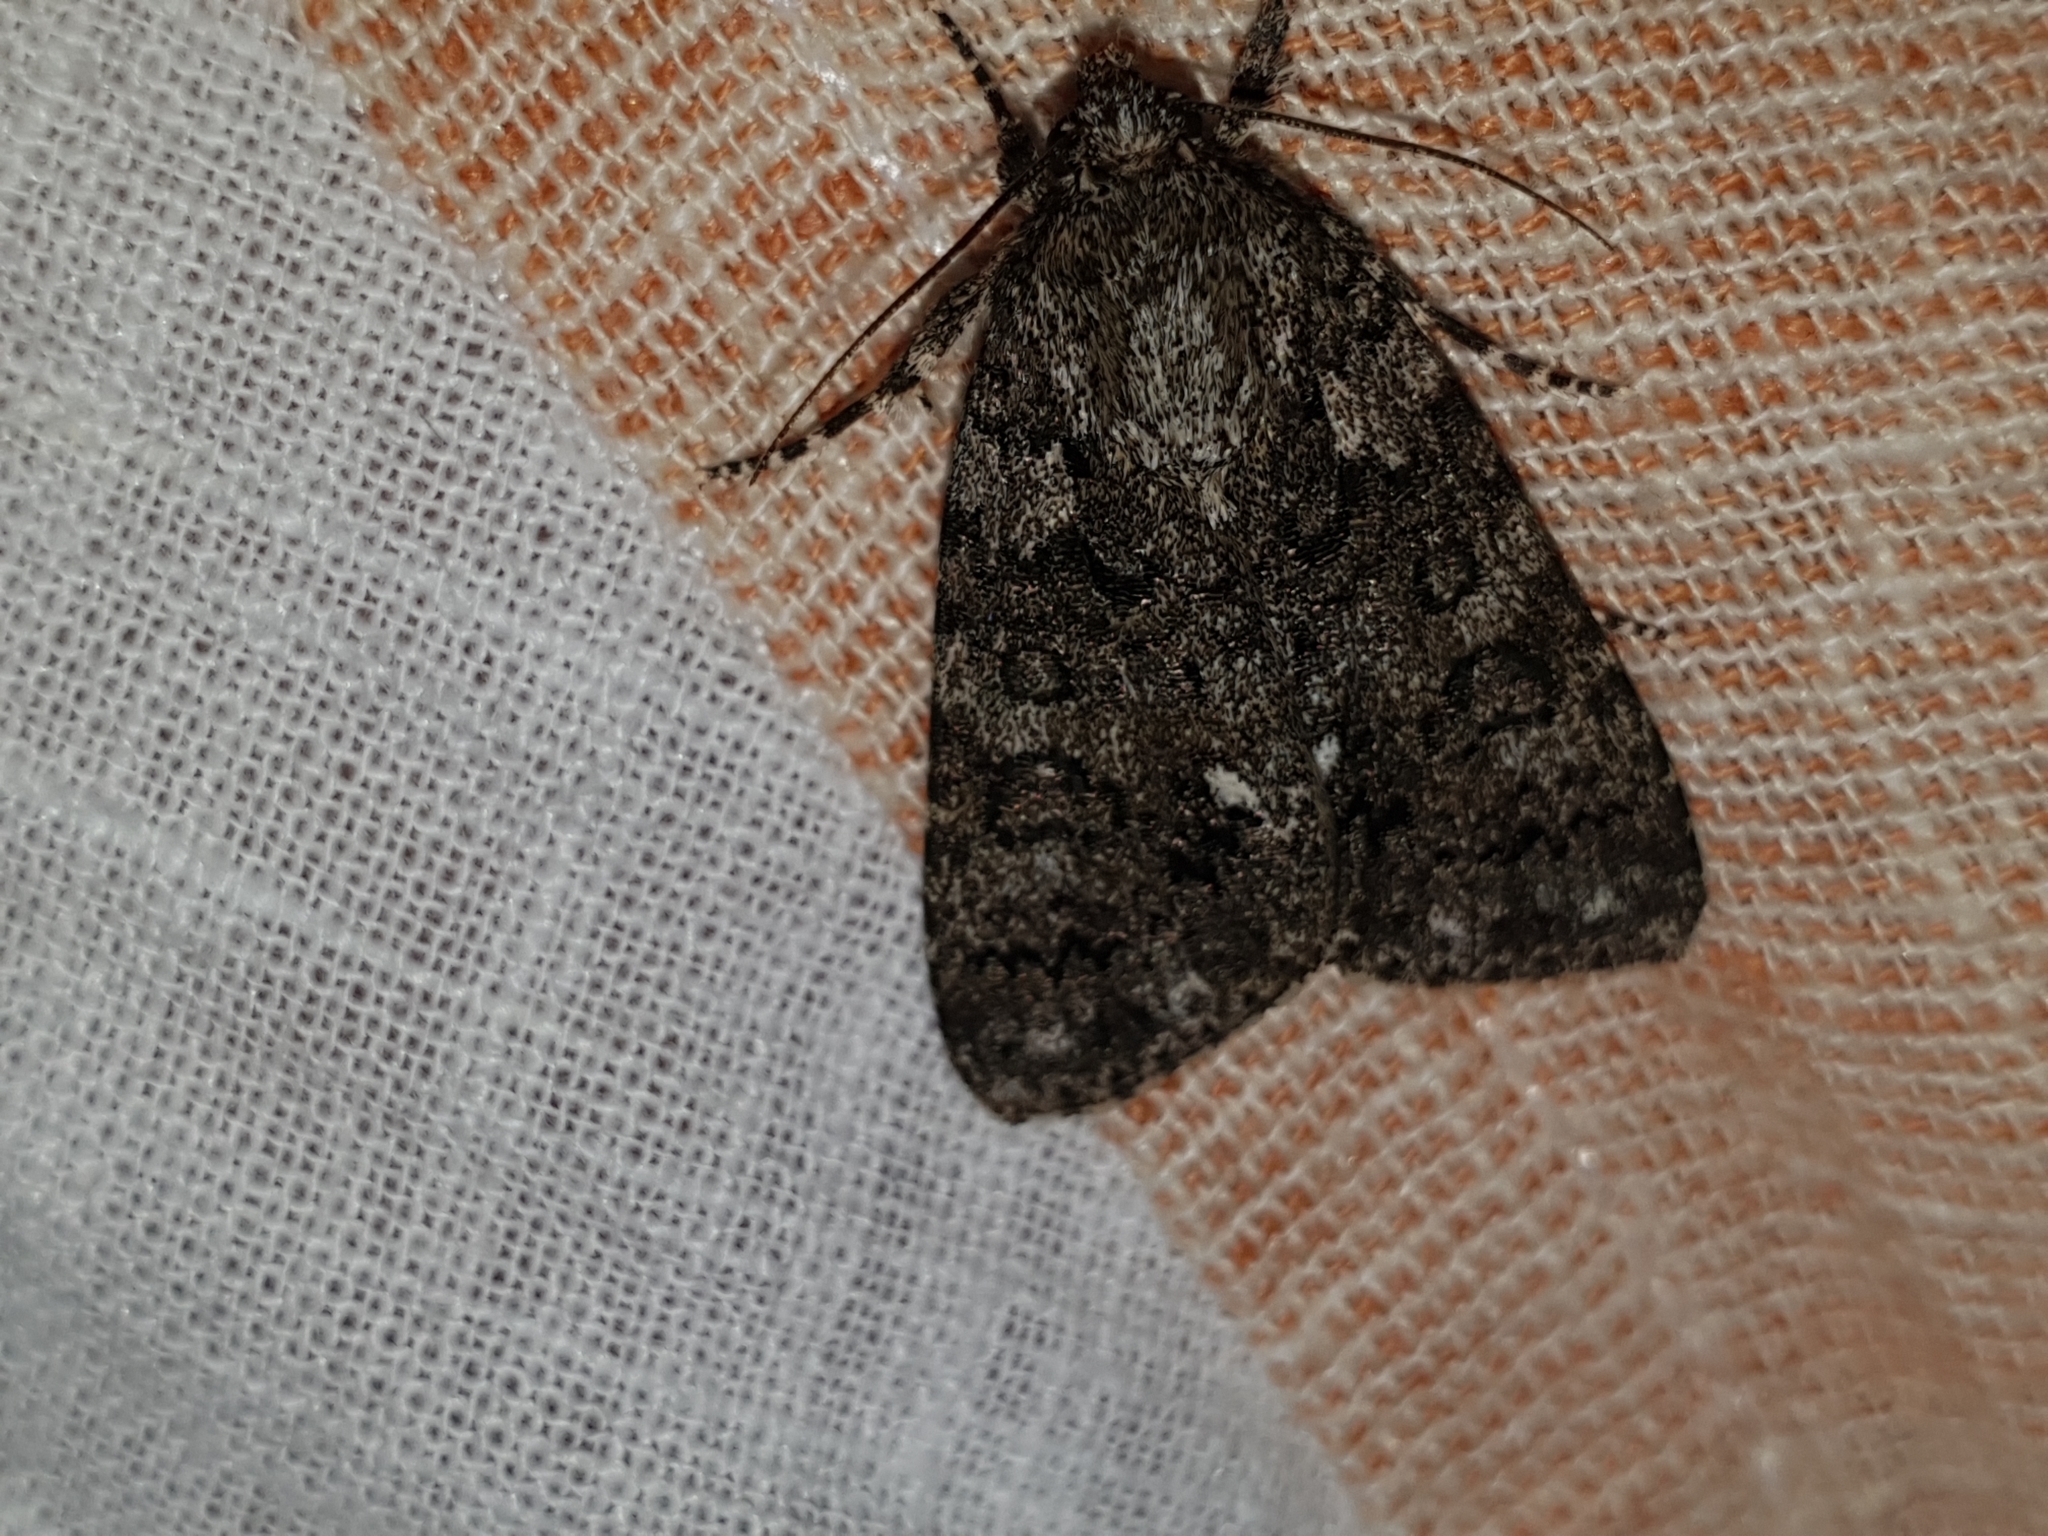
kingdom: Animalia
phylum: Arthropoda
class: Insecta
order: Lepidoptera
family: Noctuidae
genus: Acronicta
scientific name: Acronicta rumicis
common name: Knot grass
